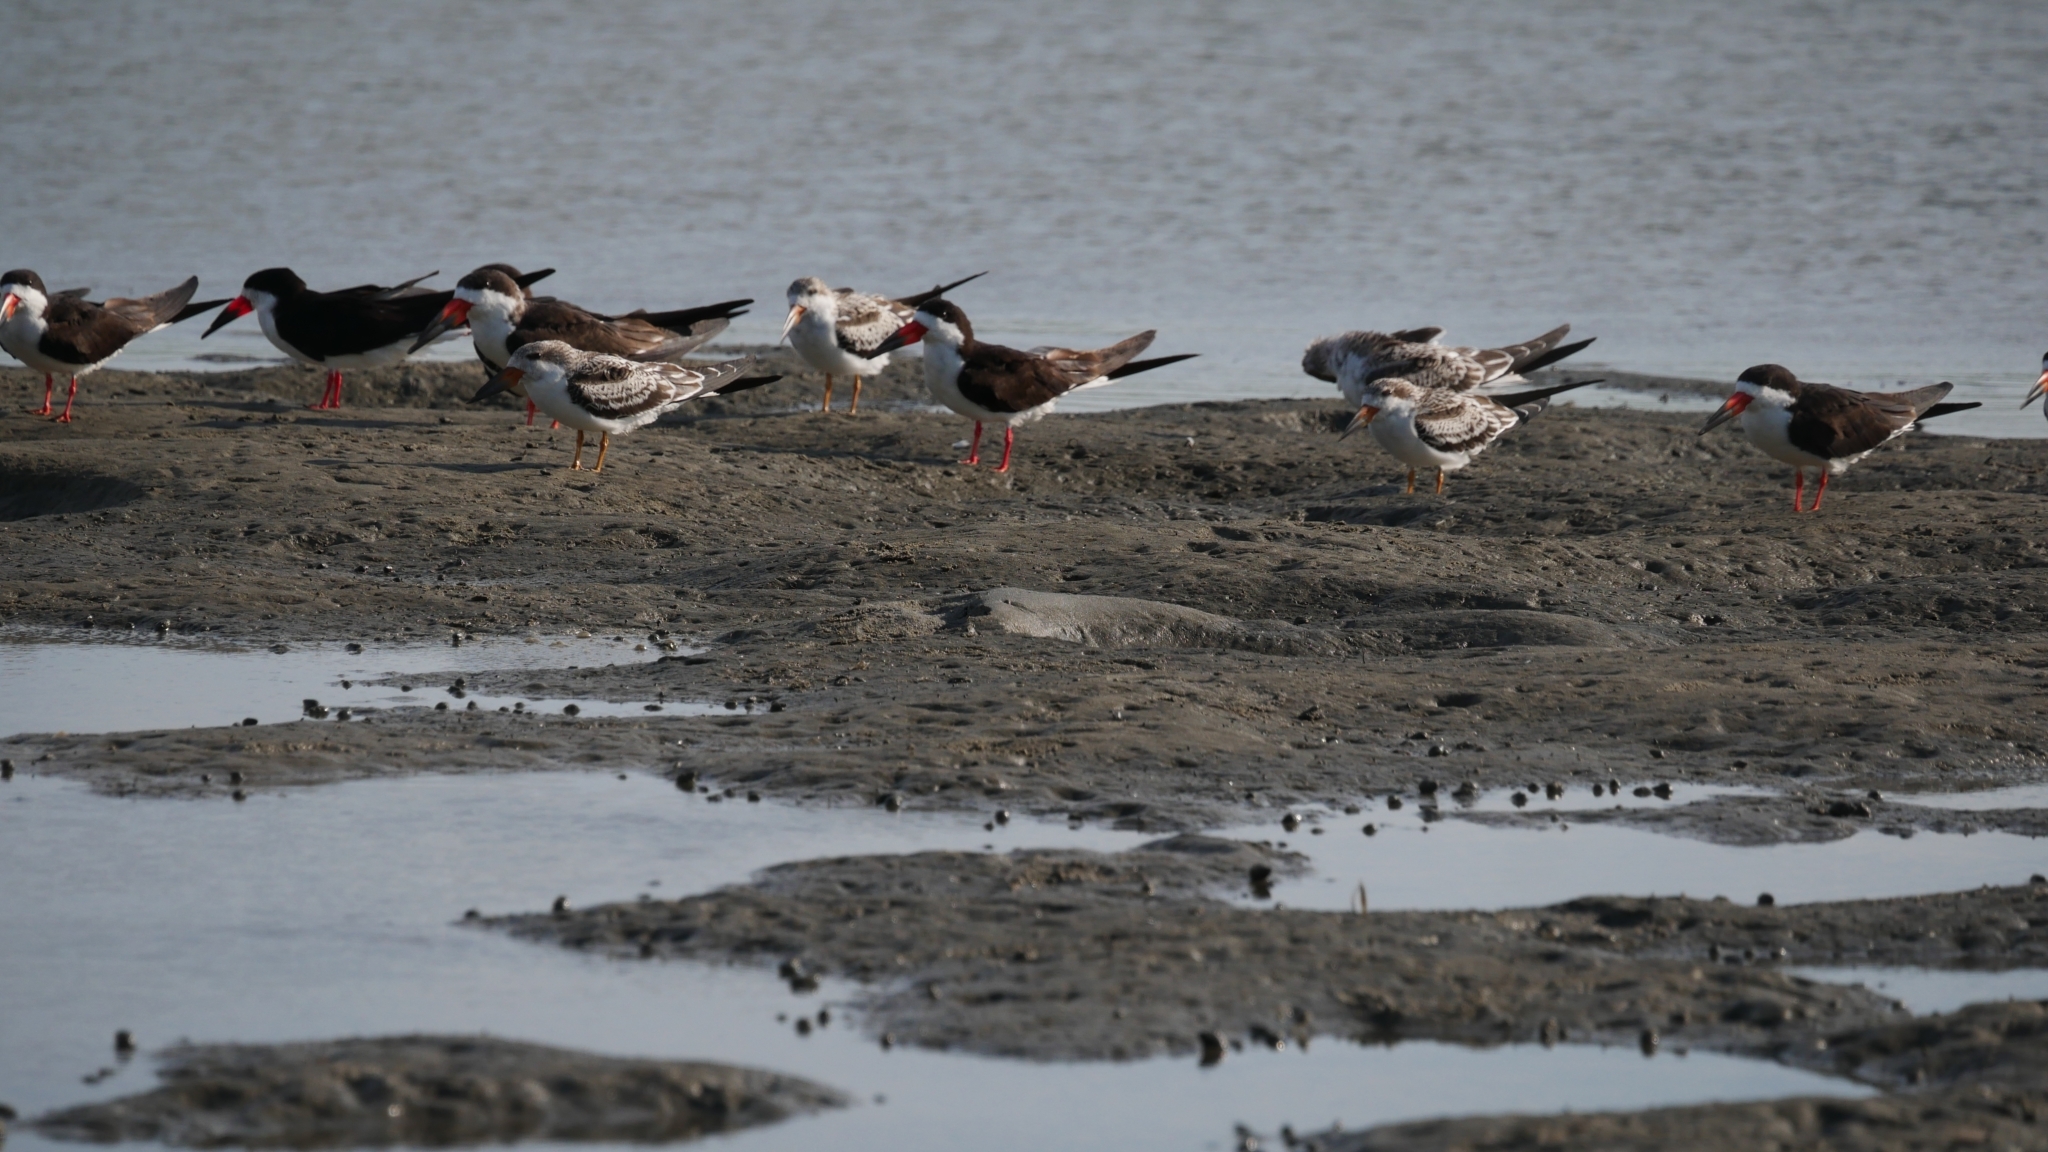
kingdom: Animalia
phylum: Chordata
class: Aves
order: Charadriiformes
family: Laridae
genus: Rynchops
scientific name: Rynchops niger
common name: Black skimmer
